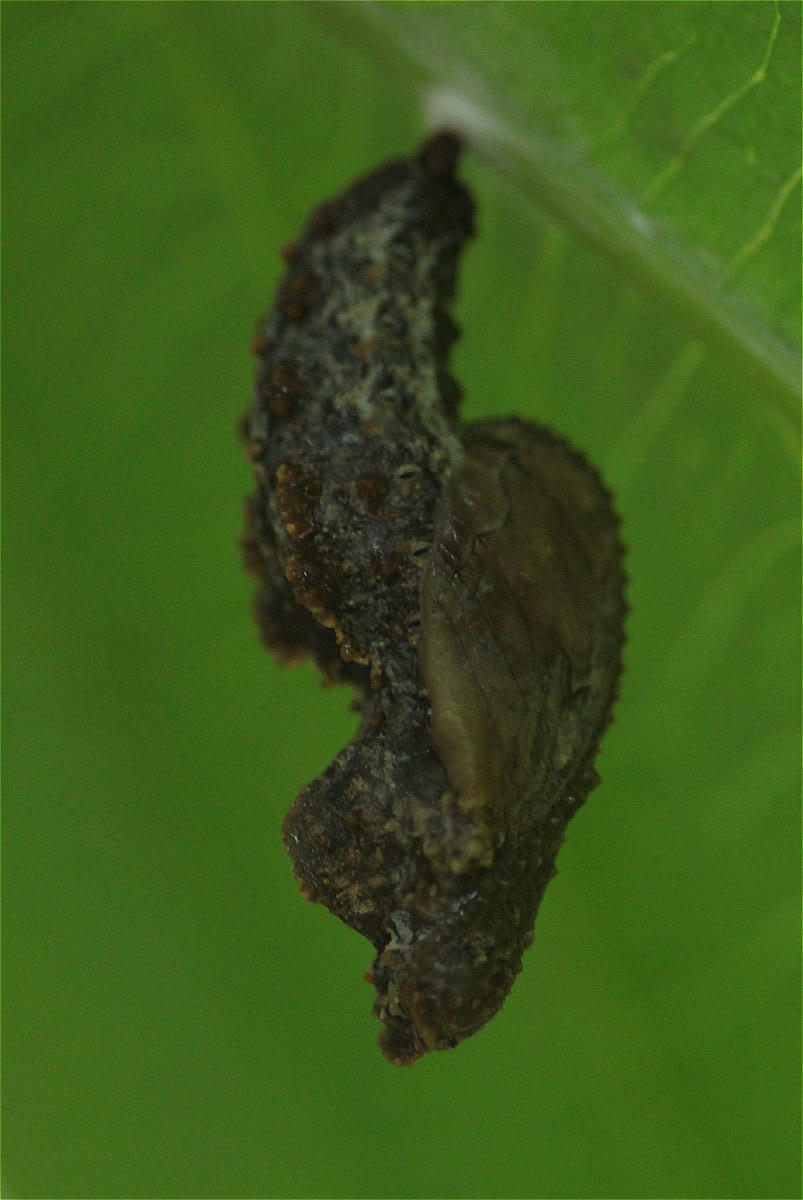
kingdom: Animalia
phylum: Arthropoda
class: Insecta
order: Lepidoptera
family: Nymphalidae
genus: Dione
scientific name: Dione juno
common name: Juno silverspot
